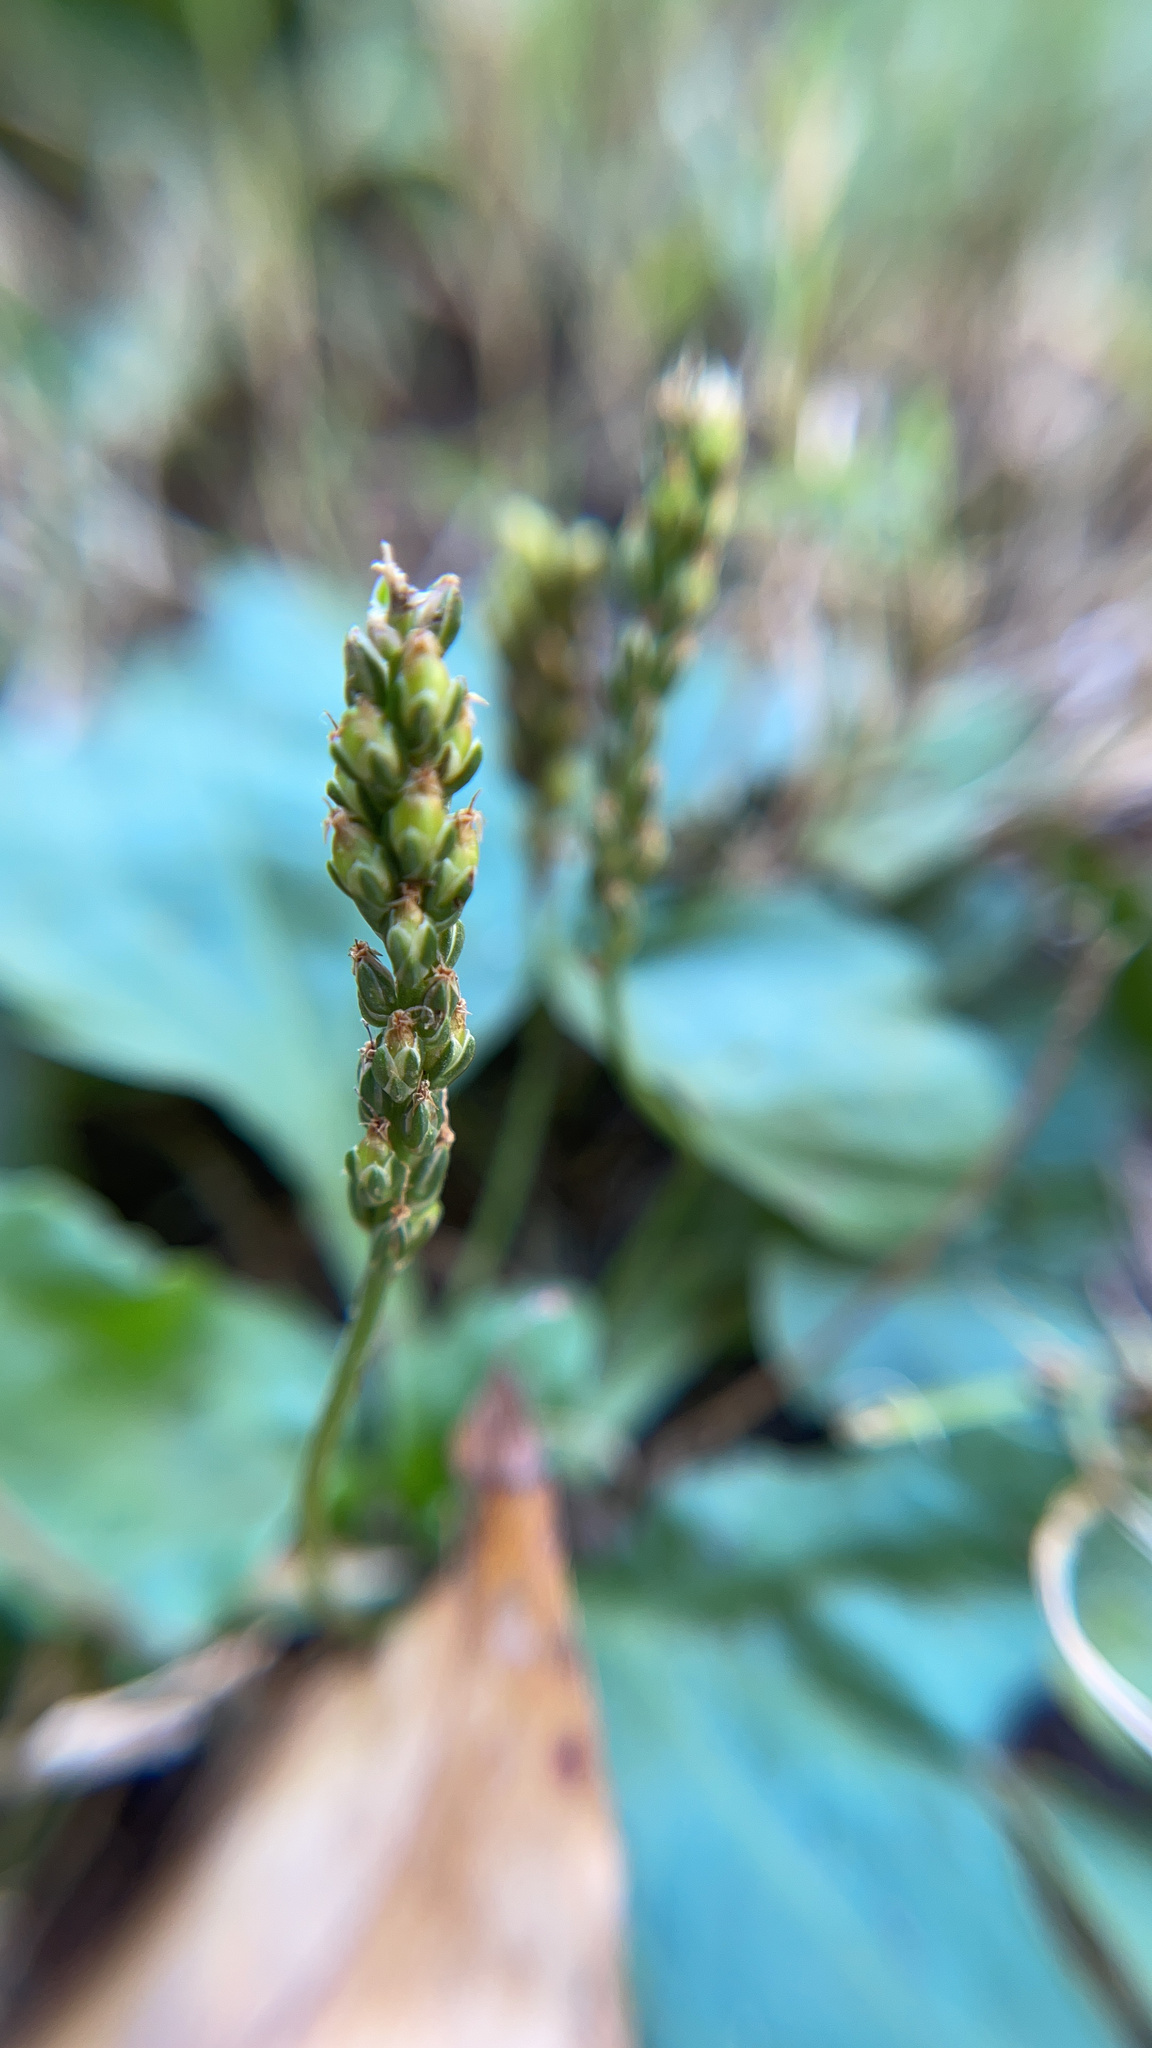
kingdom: Plantae
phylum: Tracheophyta
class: Magnoliopsida
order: Lamiales
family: Plantaginaceae
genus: Plantago
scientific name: Plantago major
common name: Common plantain
